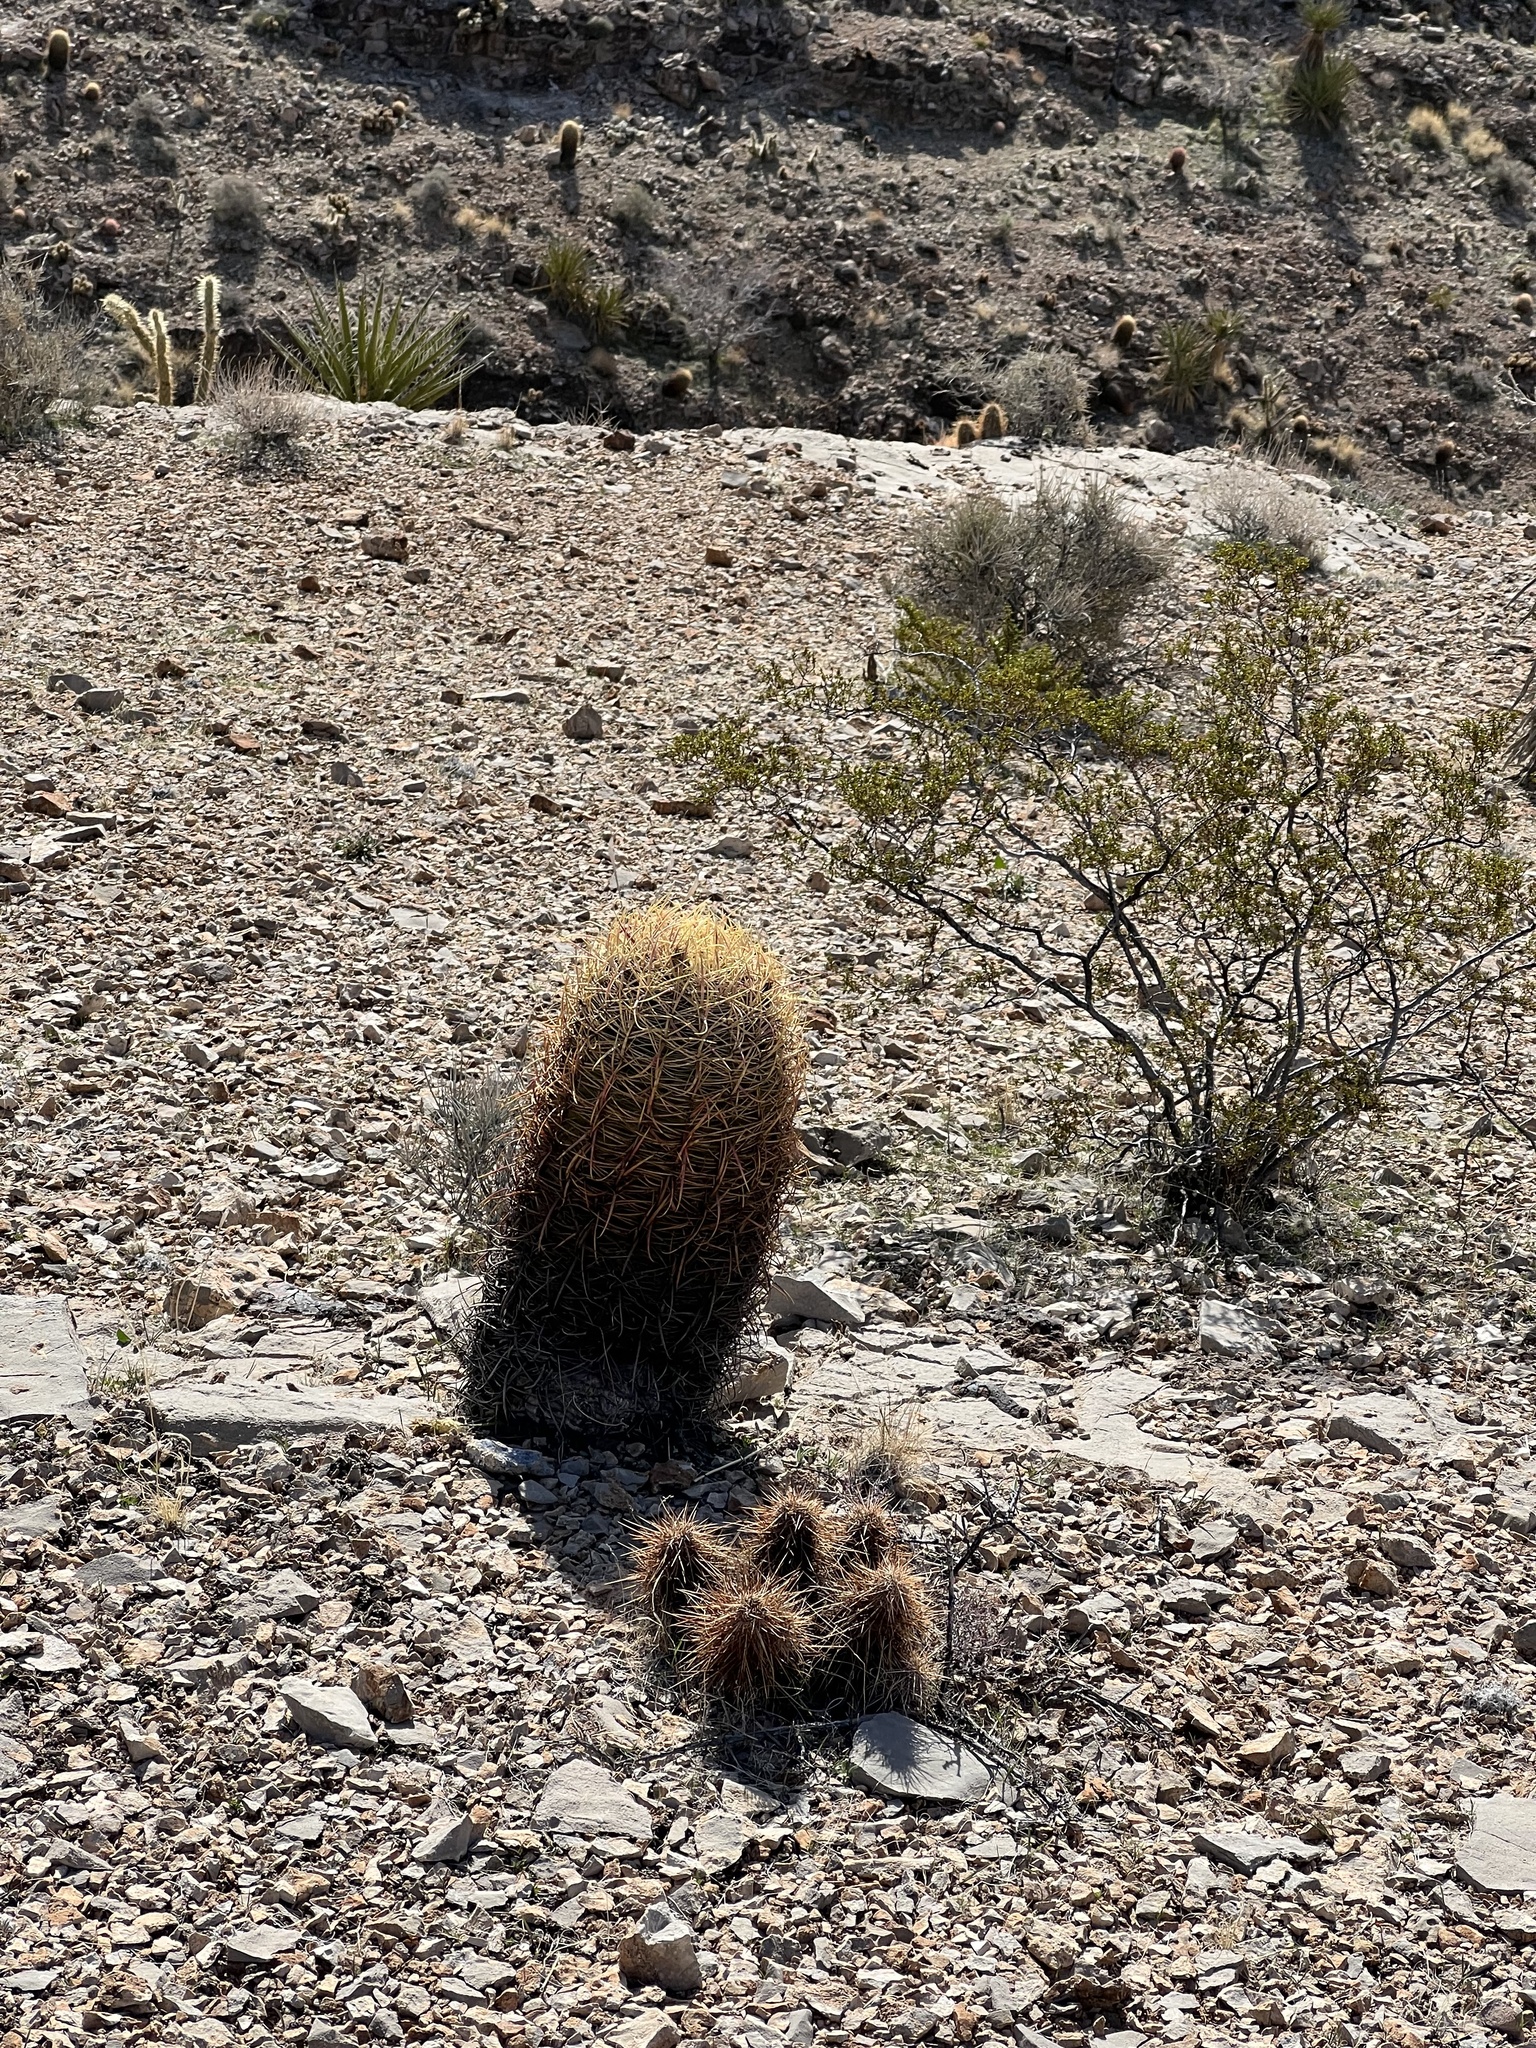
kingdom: Plantae
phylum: Tracheophyta
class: Magnoliopsida
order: Caryophyllales
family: Cactaceae
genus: Ferocactus
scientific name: Ferocactus cylindraceus
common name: California barrel cactus
